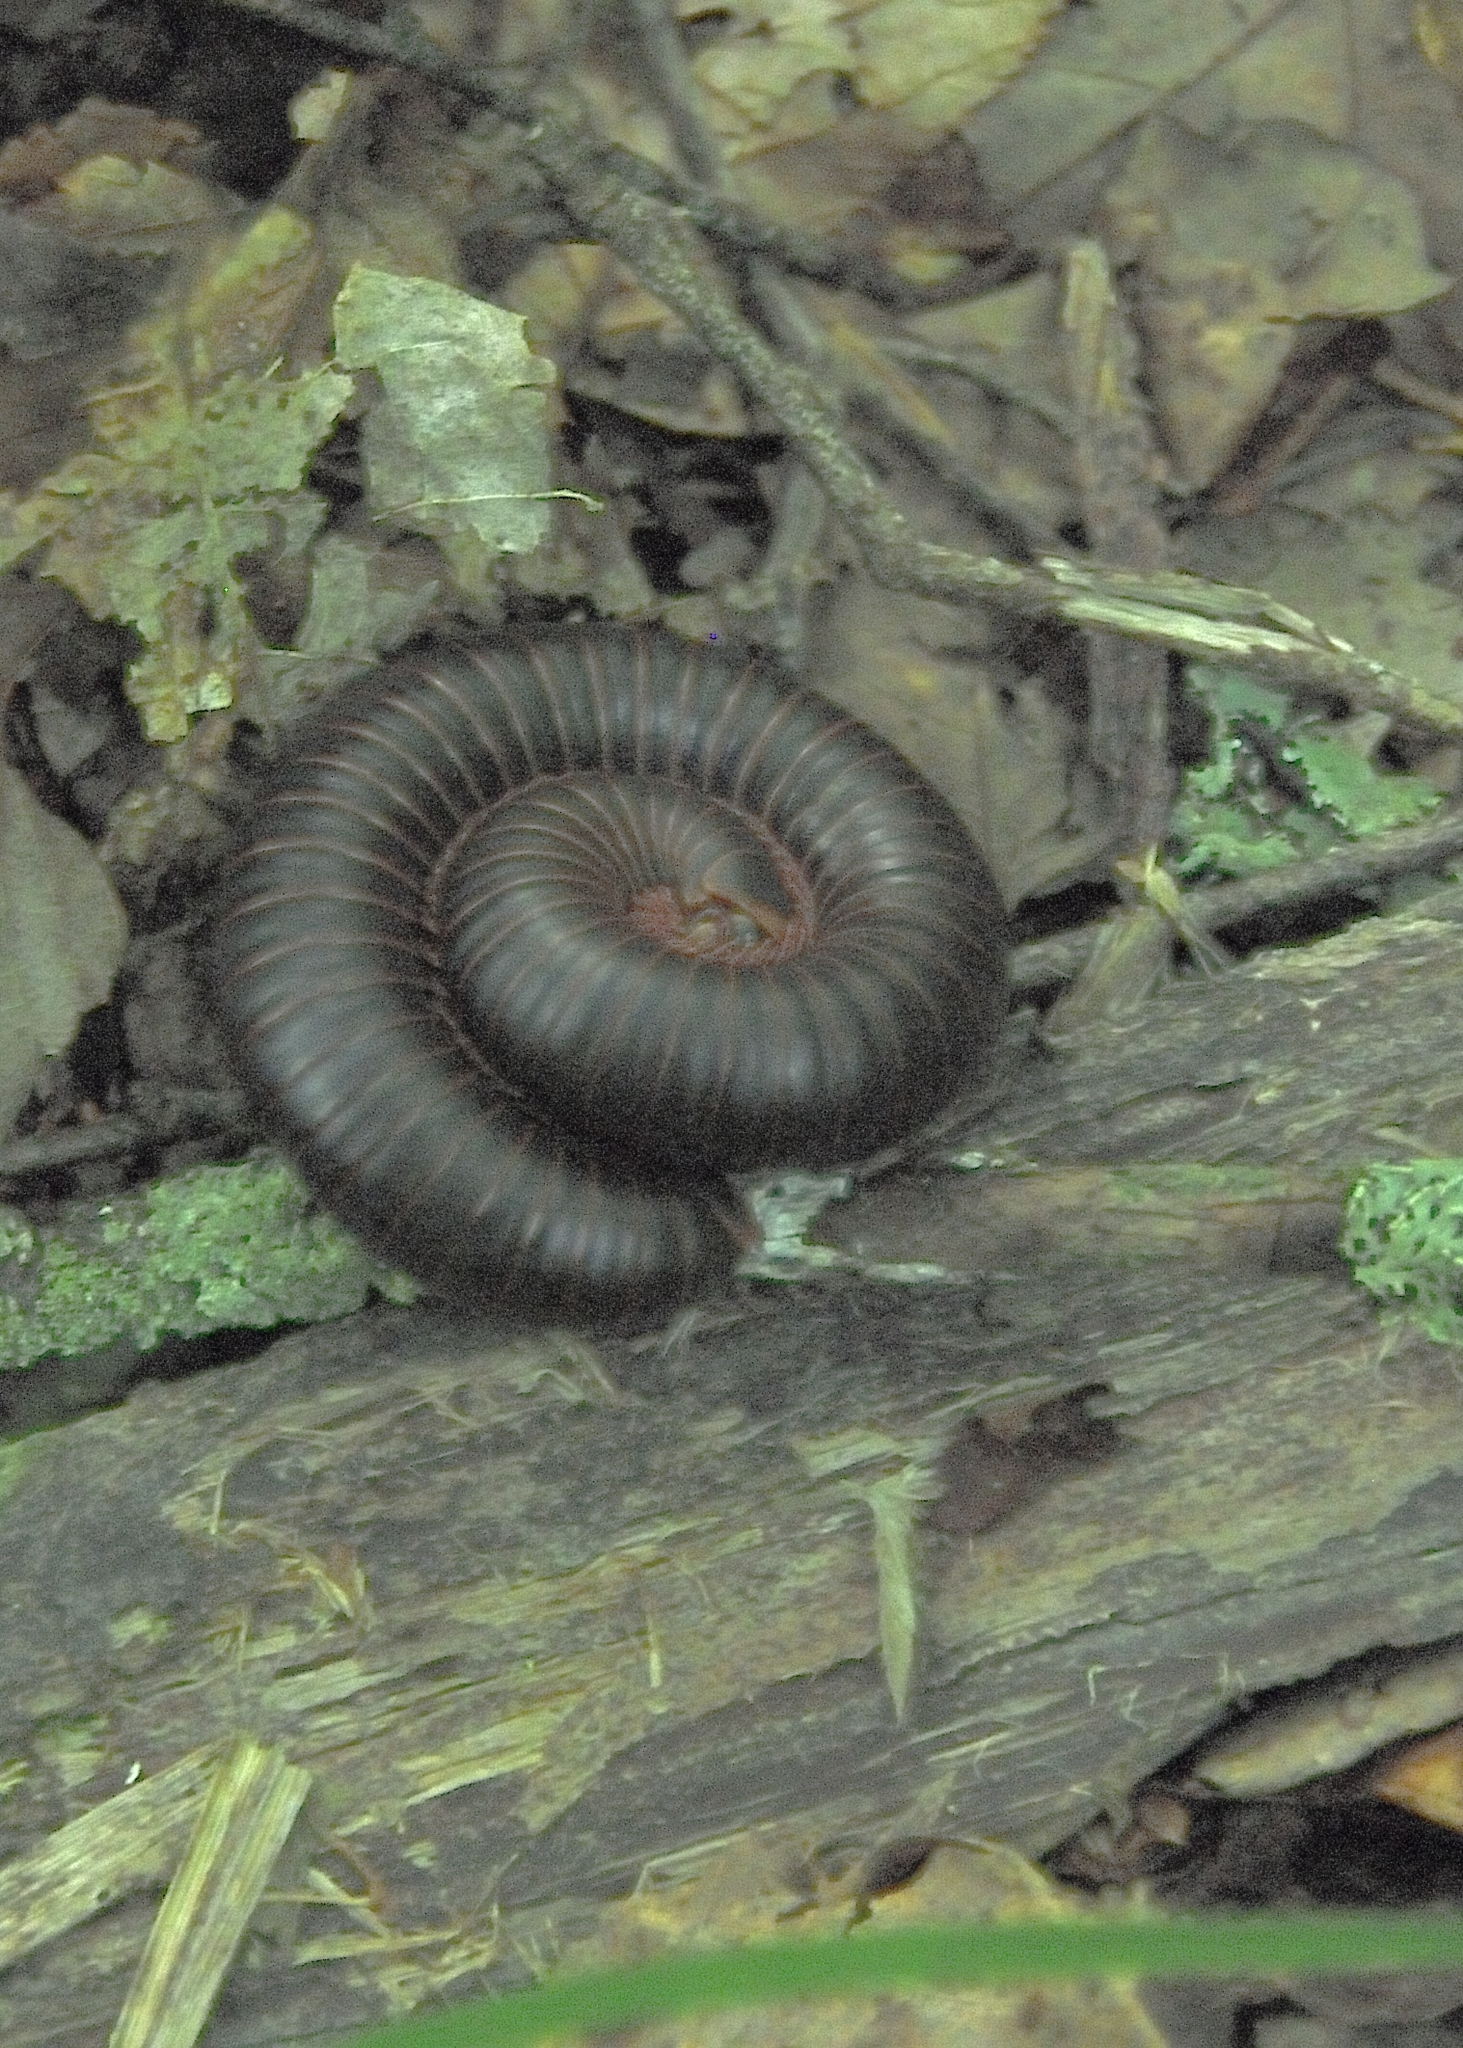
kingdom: Animalia
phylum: Arthropoda
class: Diplopoda
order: Spirobolida
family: Spirobolidae
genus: Narceus
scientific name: Narceus
